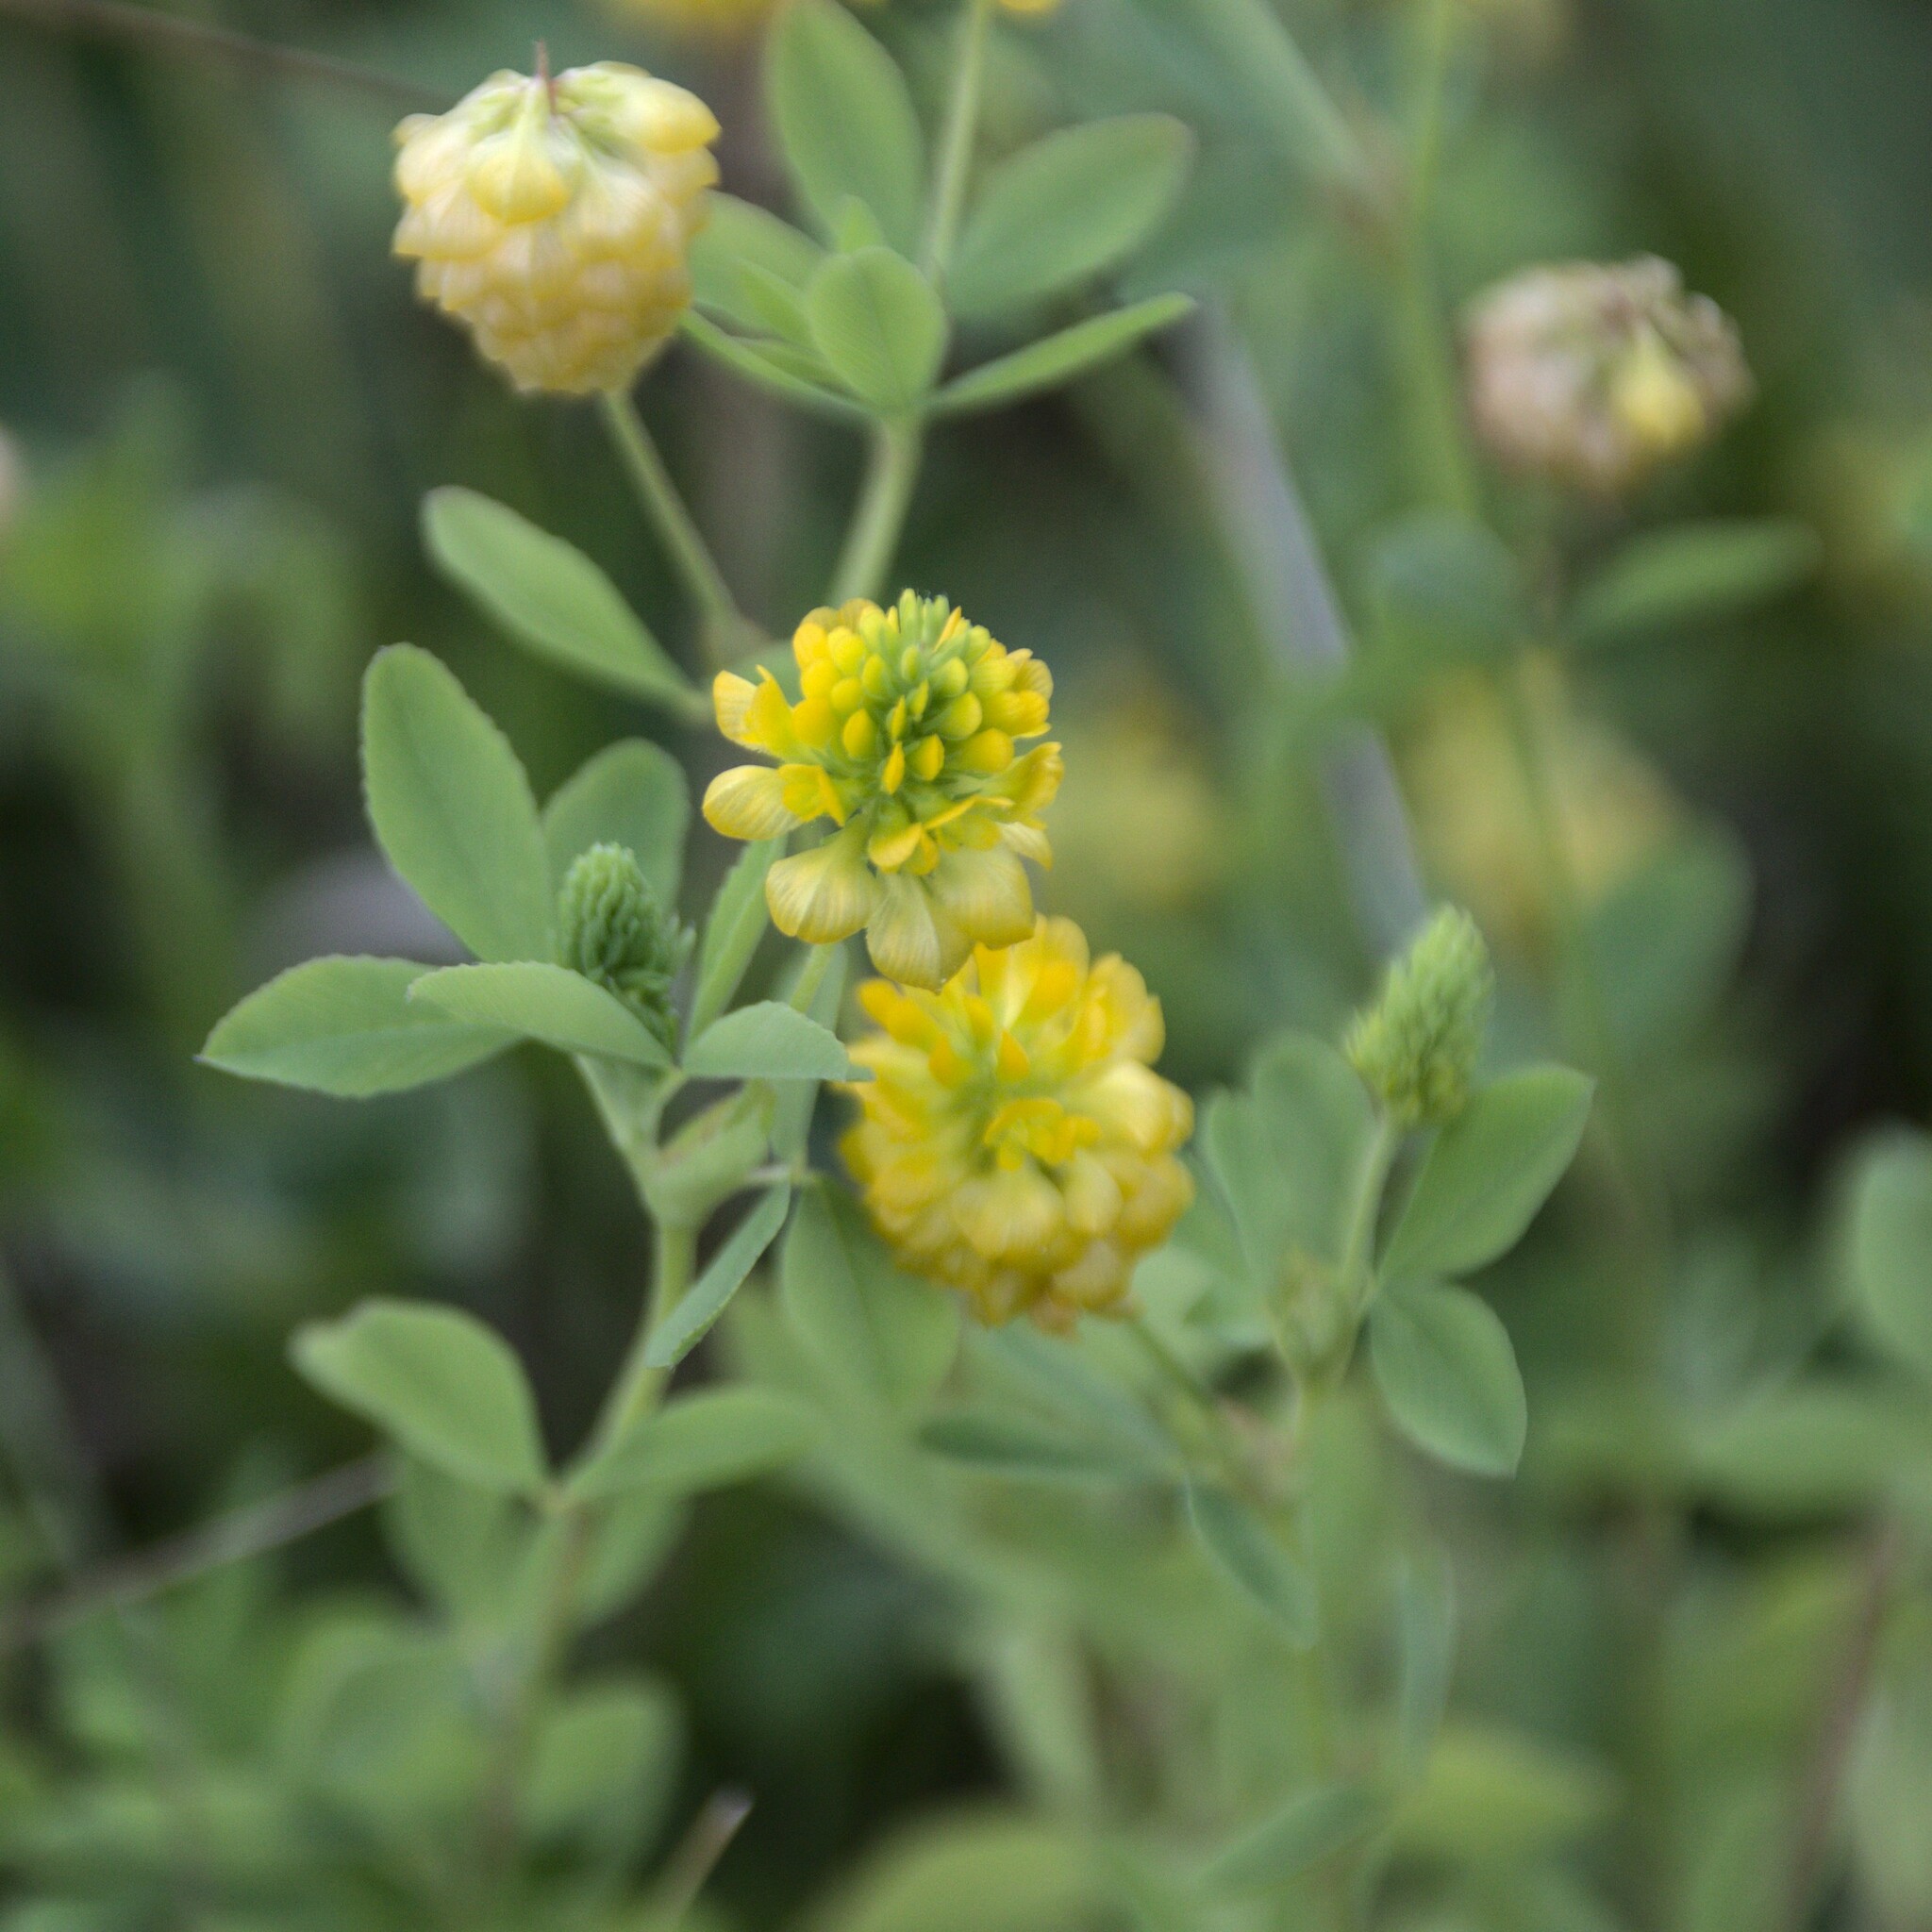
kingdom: Plantae
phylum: Tracheophyta
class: Magnoliopsida
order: Fabales
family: Fabaceae
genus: Trifolium
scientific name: Trifolium aureum
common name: Golden clover
